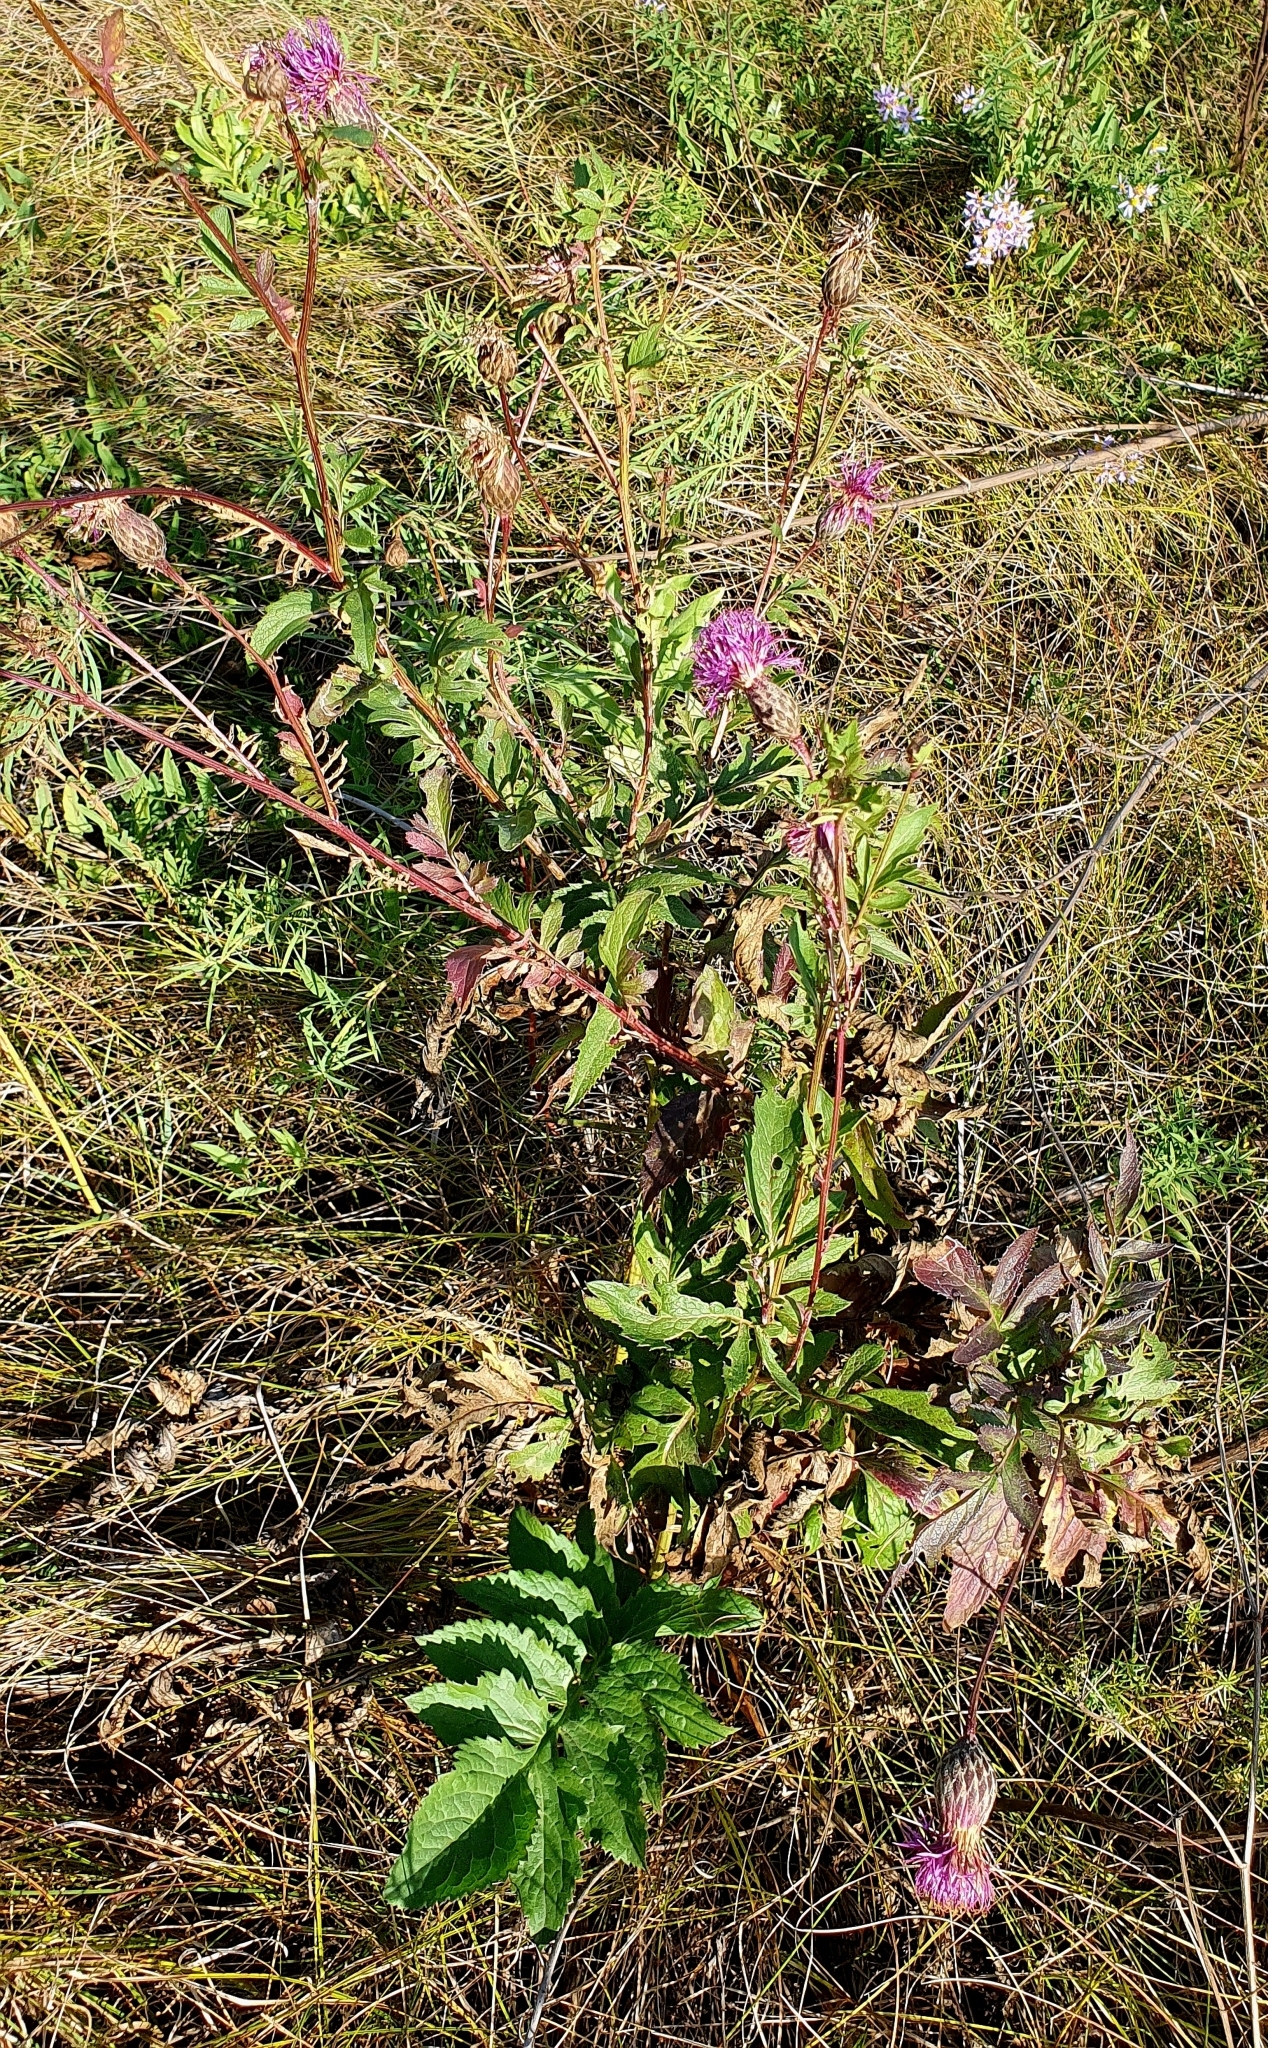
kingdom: Plantae
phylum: Tracheophyta
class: Magnoliopsida
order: Asterales
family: Asteraceae
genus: Serratula
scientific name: Serratula coronata
